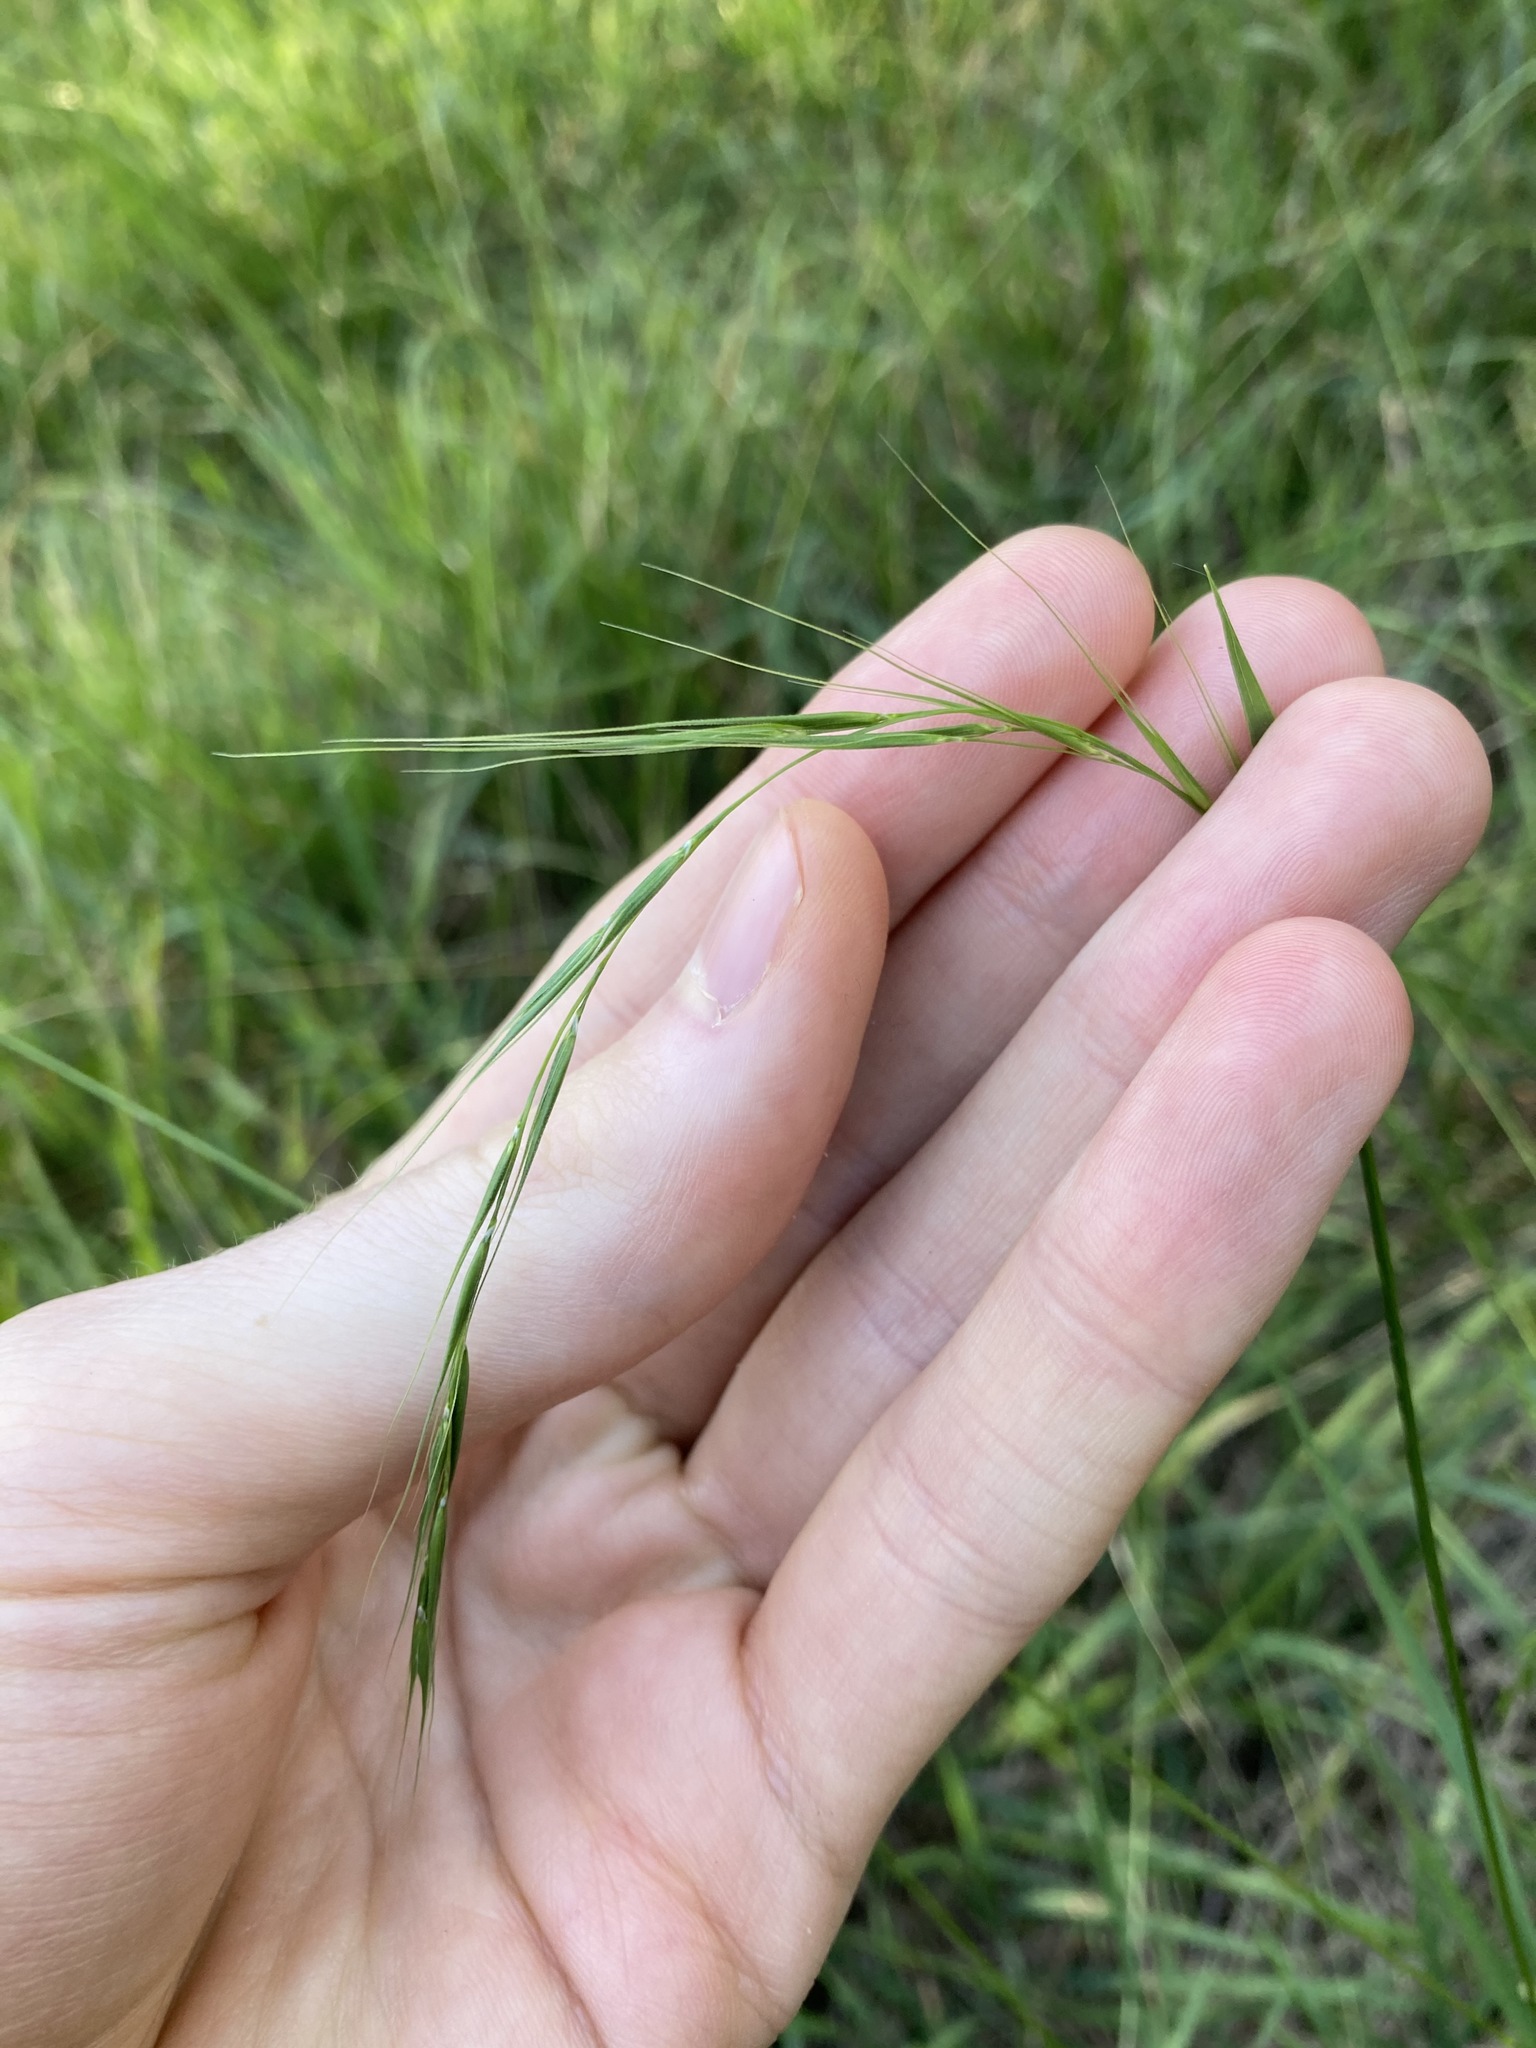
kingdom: Plantae
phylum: Tracheophyta
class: Liliopsida
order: Poales
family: Poaceae
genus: Microlaena
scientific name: Microlaena stipoides
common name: Meadow ricegrass
